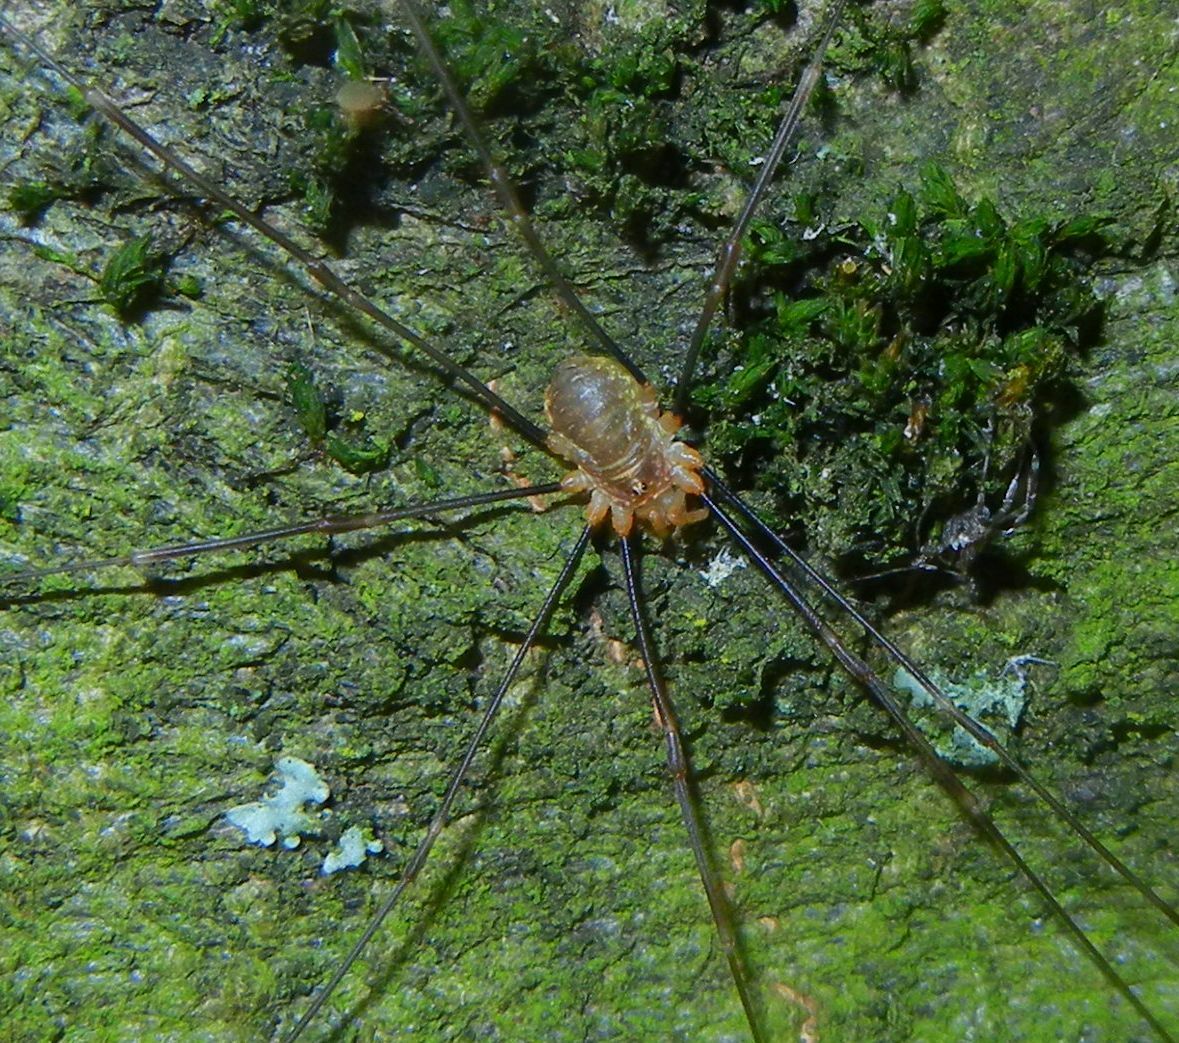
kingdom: Animalia
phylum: Arthropoda
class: Arachnida
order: Opiliones
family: Phalangiidae
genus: Opilio
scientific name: Opilio canestrinii
